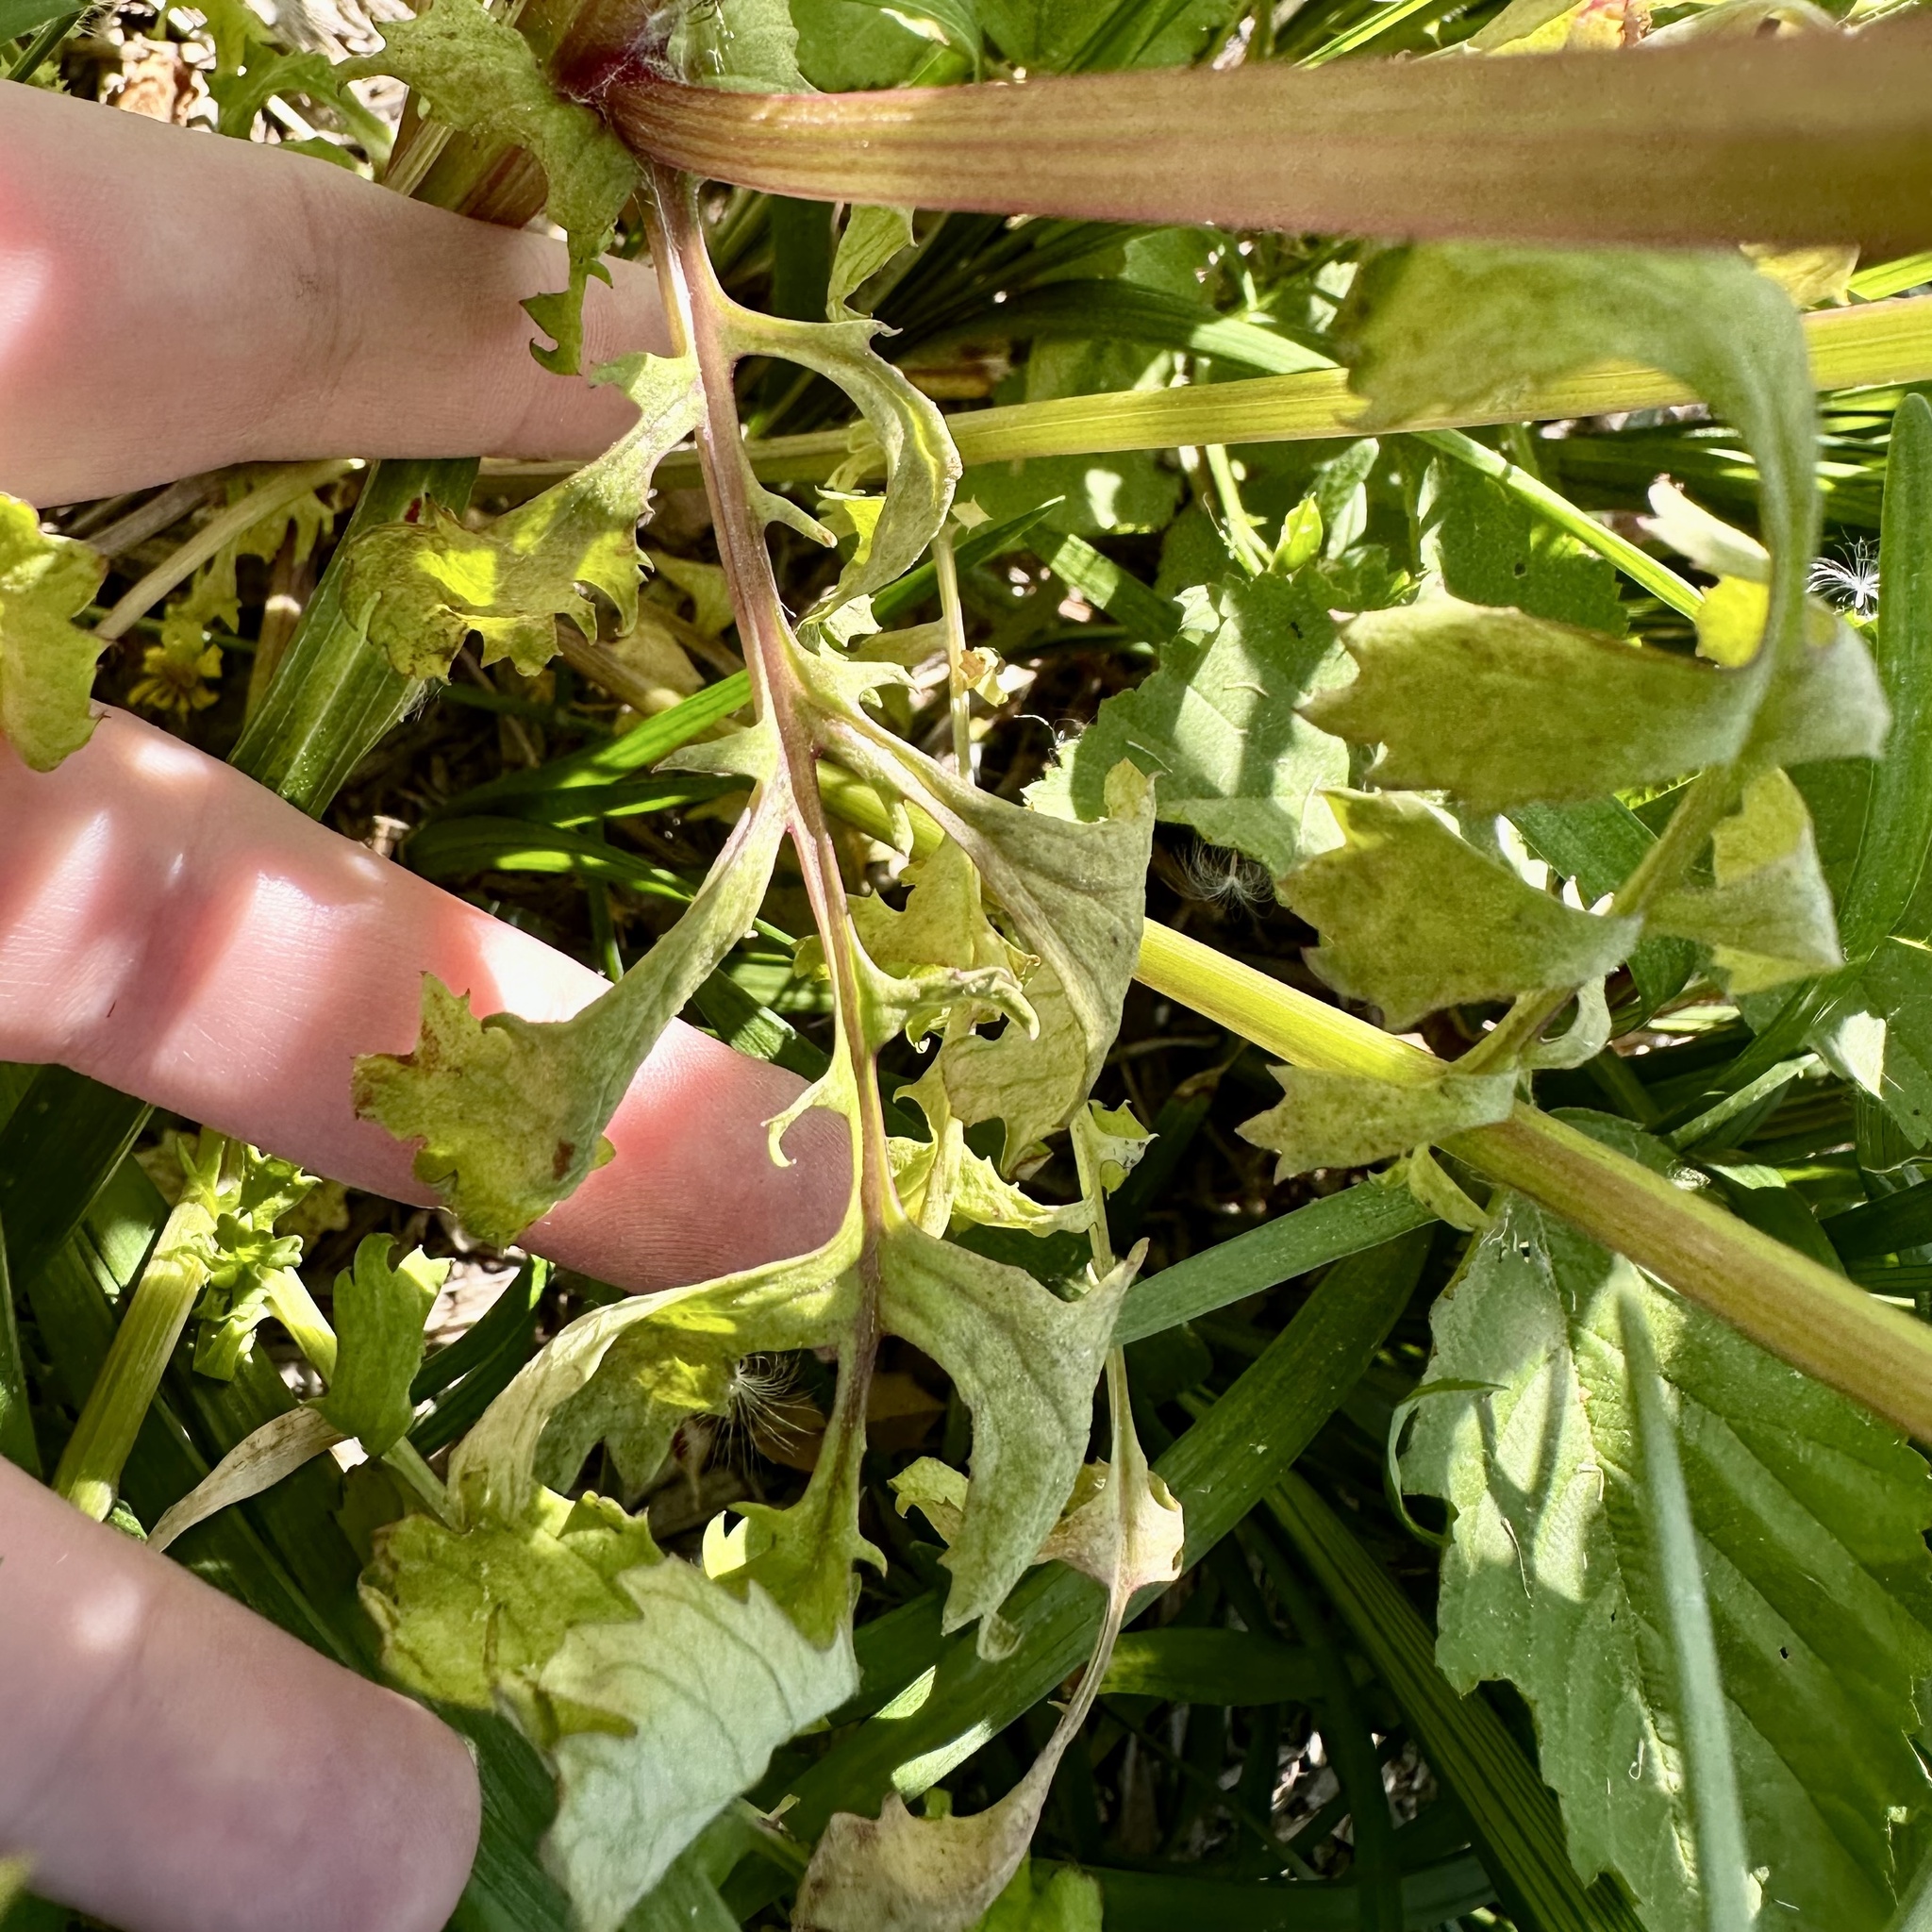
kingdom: Plantae
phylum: Tracheophyta
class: Magnoliopsida
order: Asterales
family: Asteraceae
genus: Packera
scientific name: Packera glabella
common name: Butterweed
